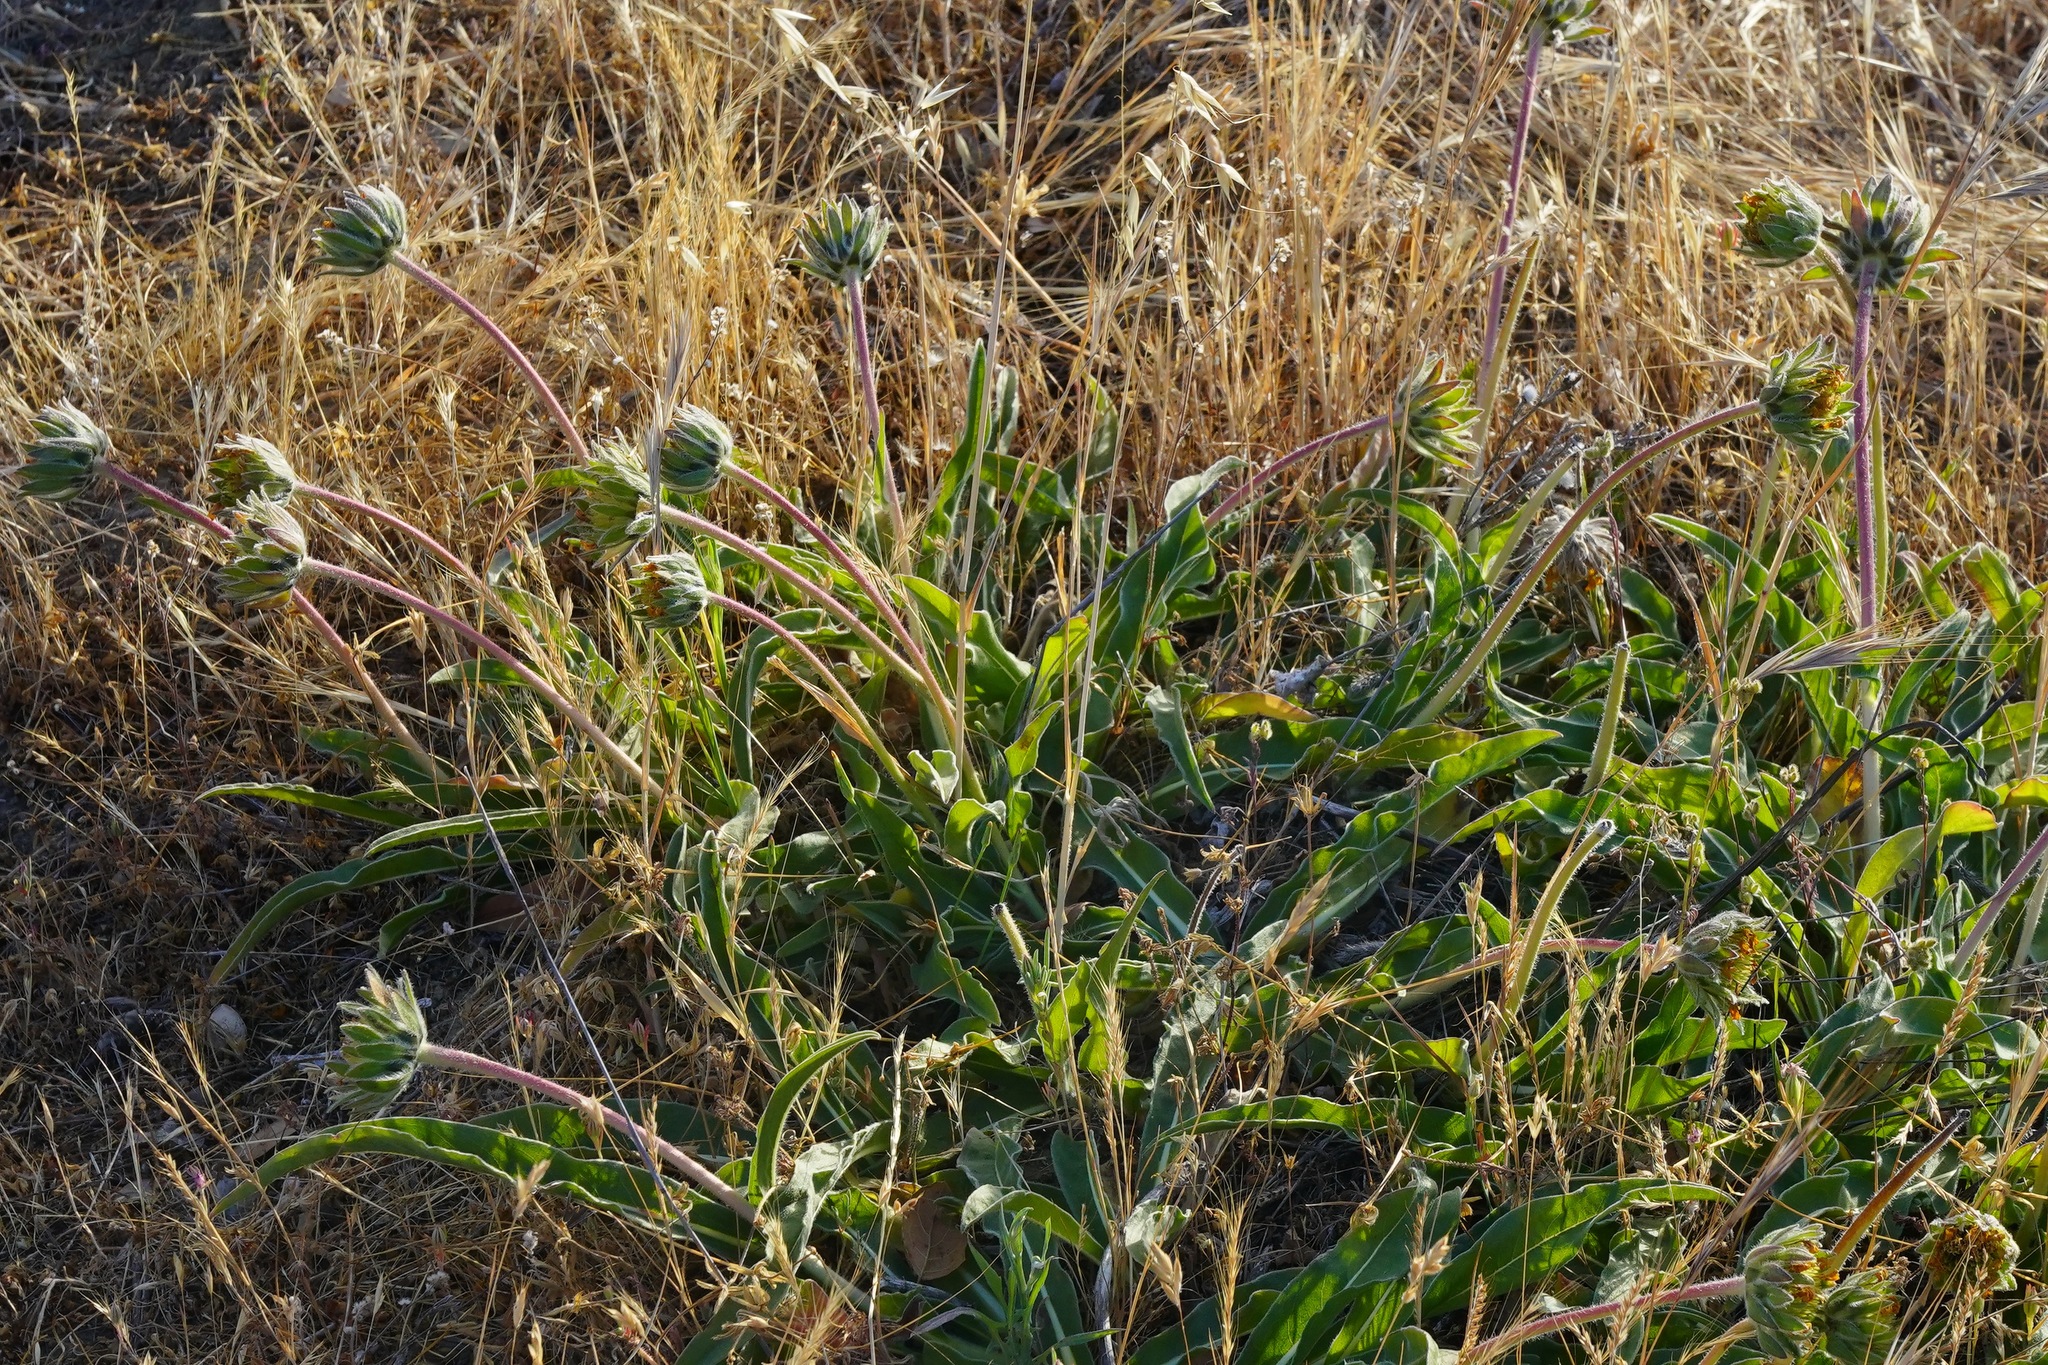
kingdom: Plantae
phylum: Tracheophyta
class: Magnoliopsida
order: Asterales
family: Asteraceae
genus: Wyethia
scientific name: Wyethia angustifolia
